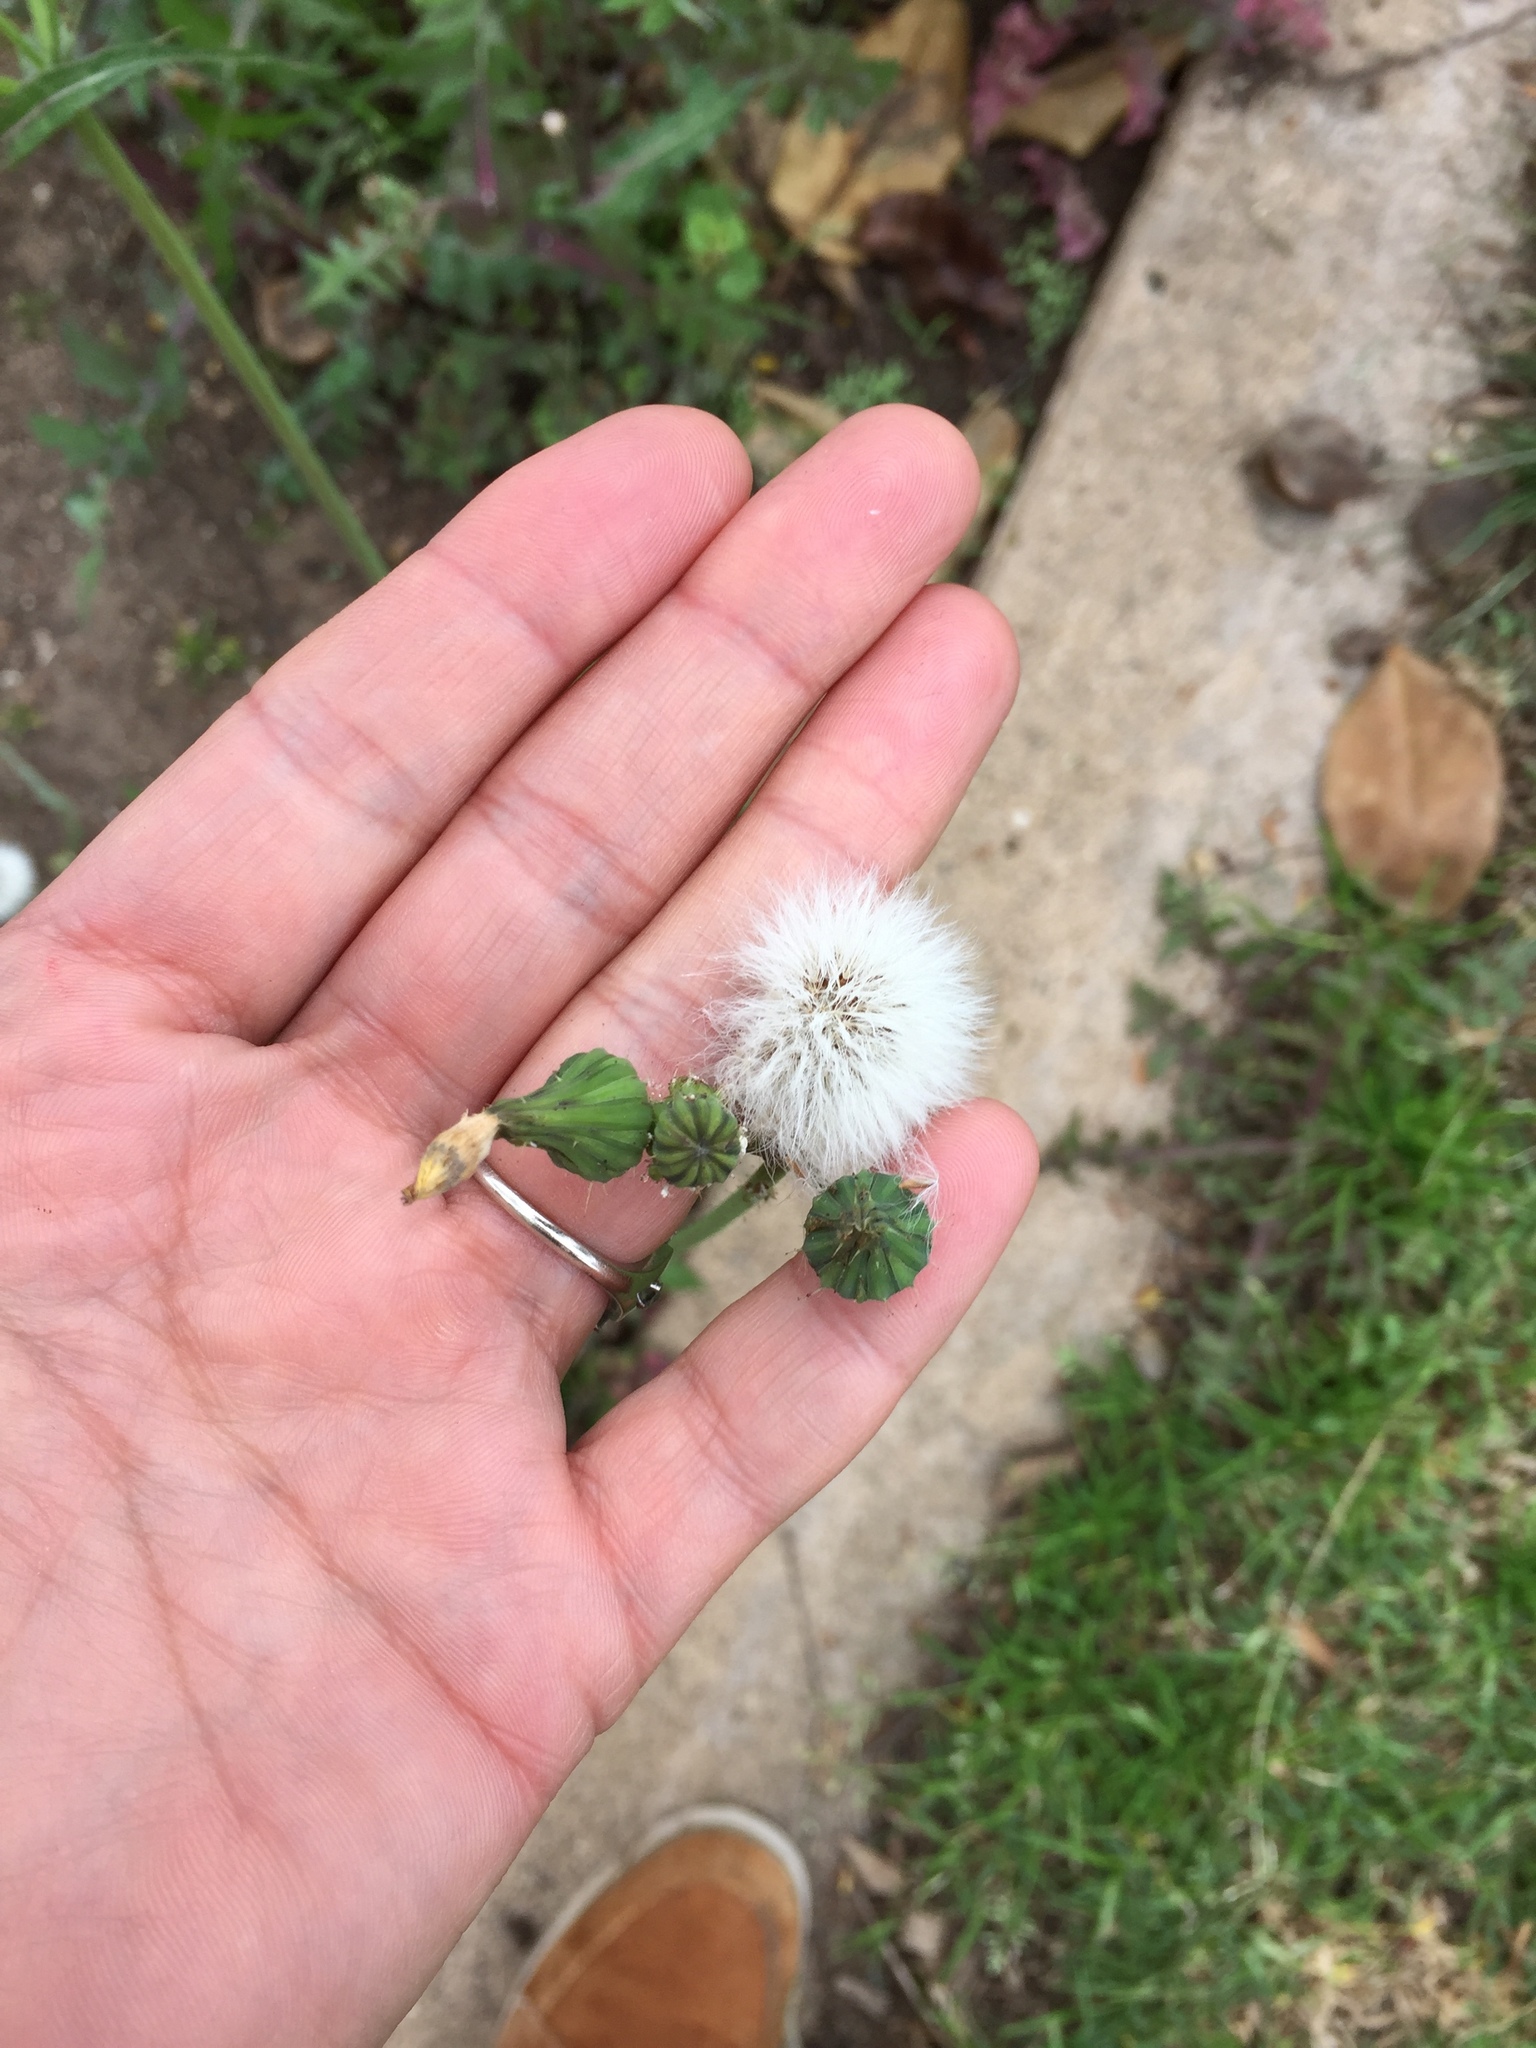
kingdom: Plantae
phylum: Tracheophyta
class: Magnoliopsida
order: Asterales
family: Asteraceae
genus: Sonchus
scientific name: Sonchus oleraceus
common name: Common sowthistle
